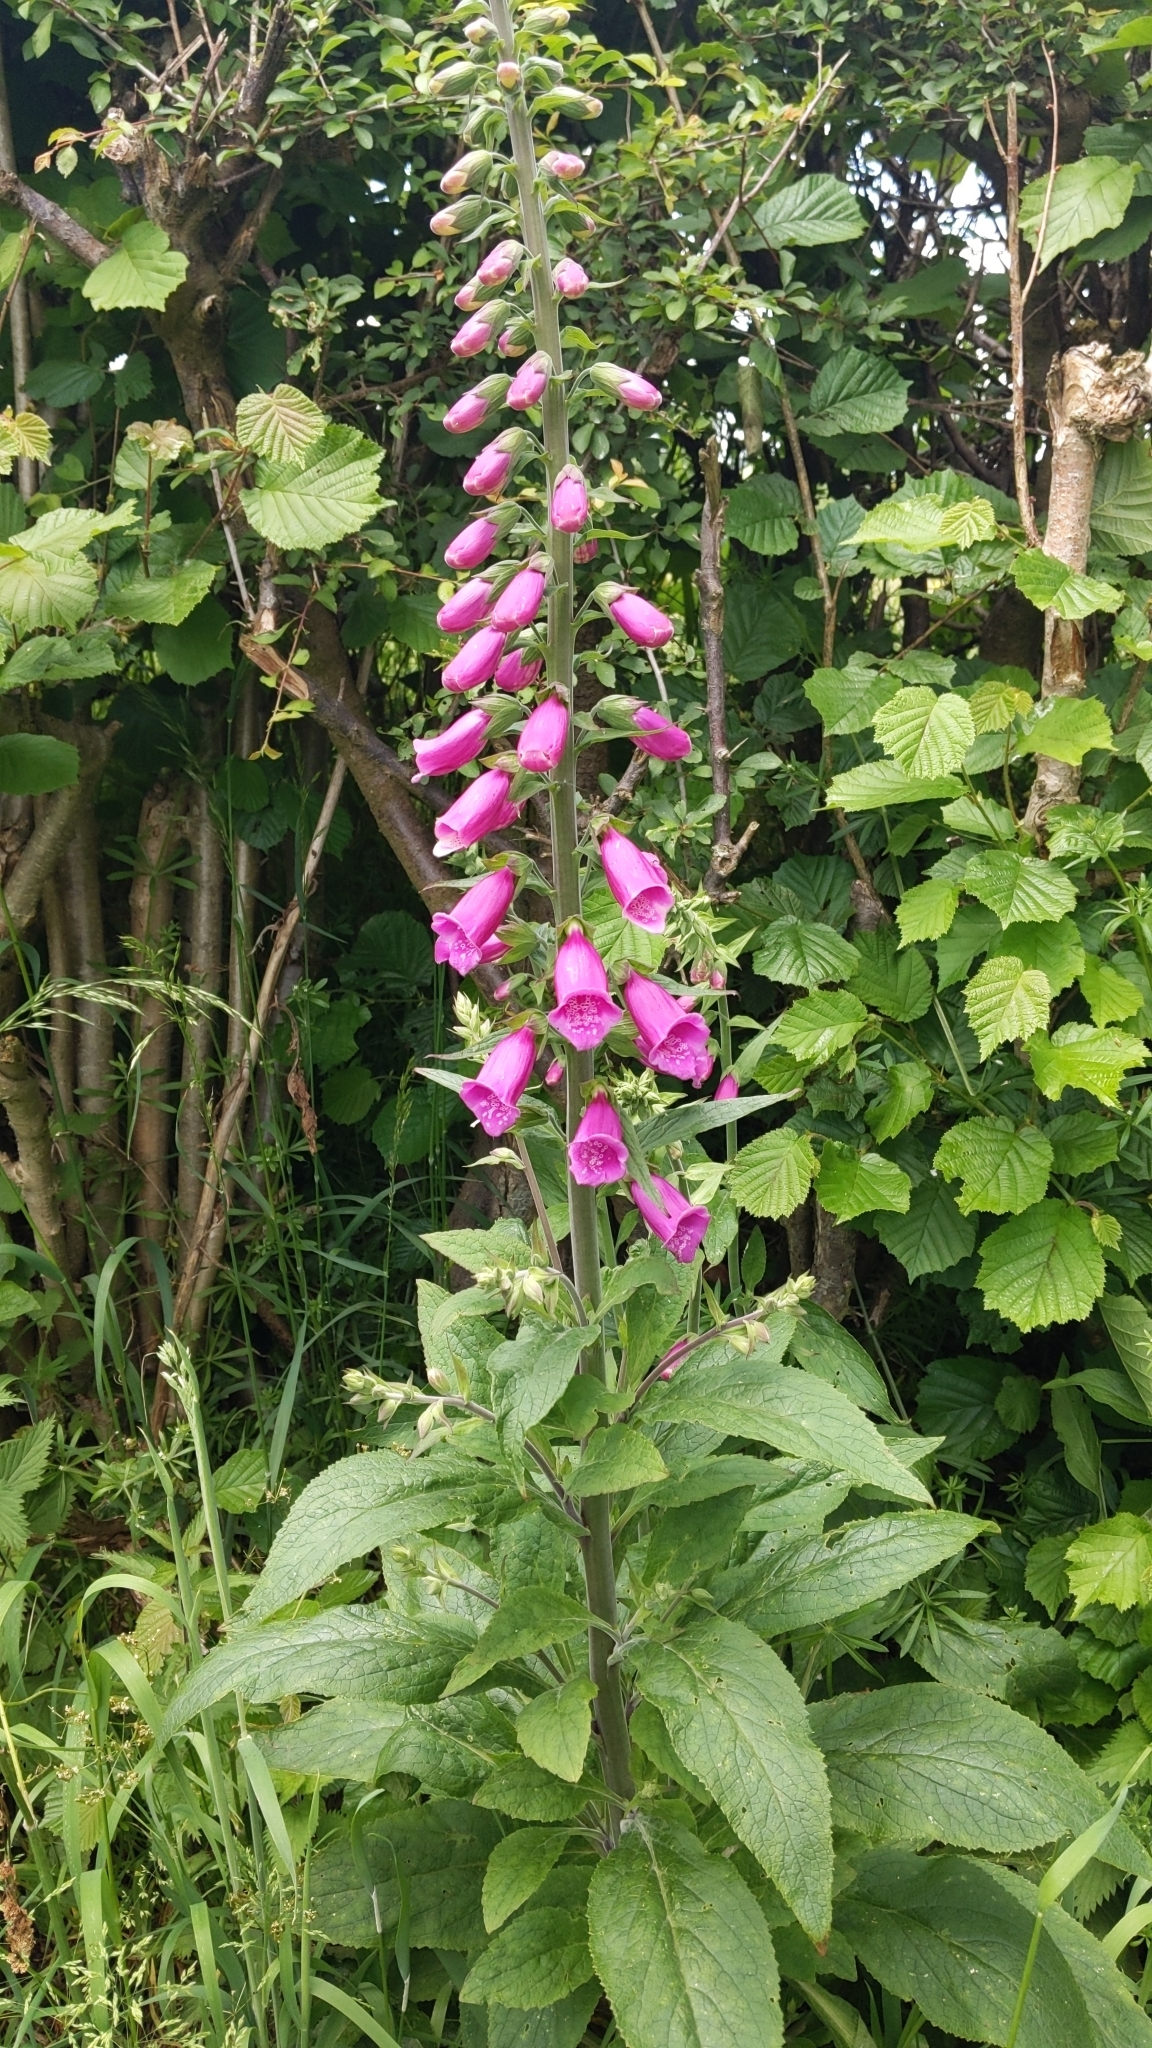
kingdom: Plantae
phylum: Tracheophyta
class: Magnoliopsida
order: Lamiales
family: Plantaginaceae
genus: Digitalis
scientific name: Digitalis purpurea
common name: Foxglove
